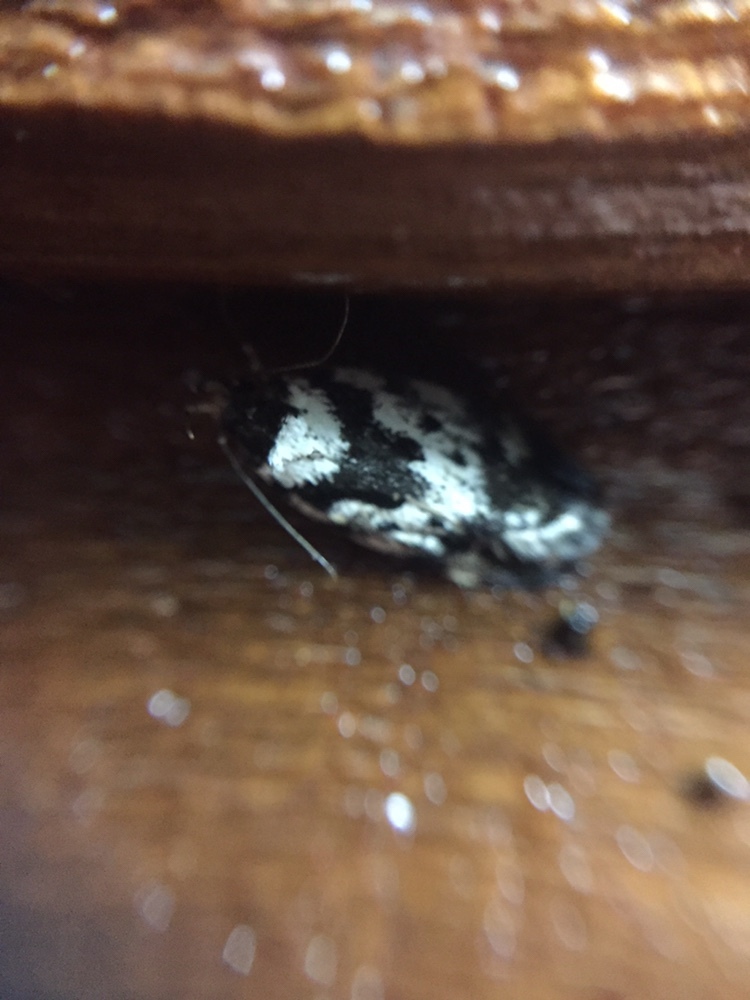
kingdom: Animalia
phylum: Arthropoda
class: Insecta
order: Lepidoptera
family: Oecophoridae
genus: Barea
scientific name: Barea confusella
